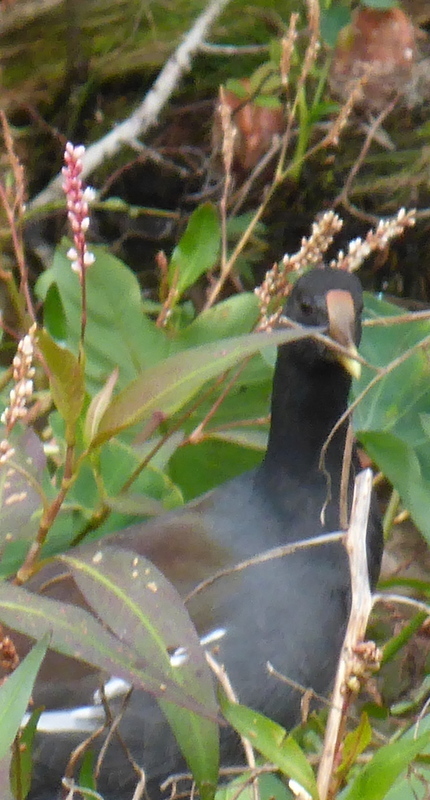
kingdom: Animalia
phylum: Chordata
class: Aves
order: Gruiformes
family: Rallidae
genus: Gallinula
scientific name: Gallinula chloropus
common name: Common moorhen
